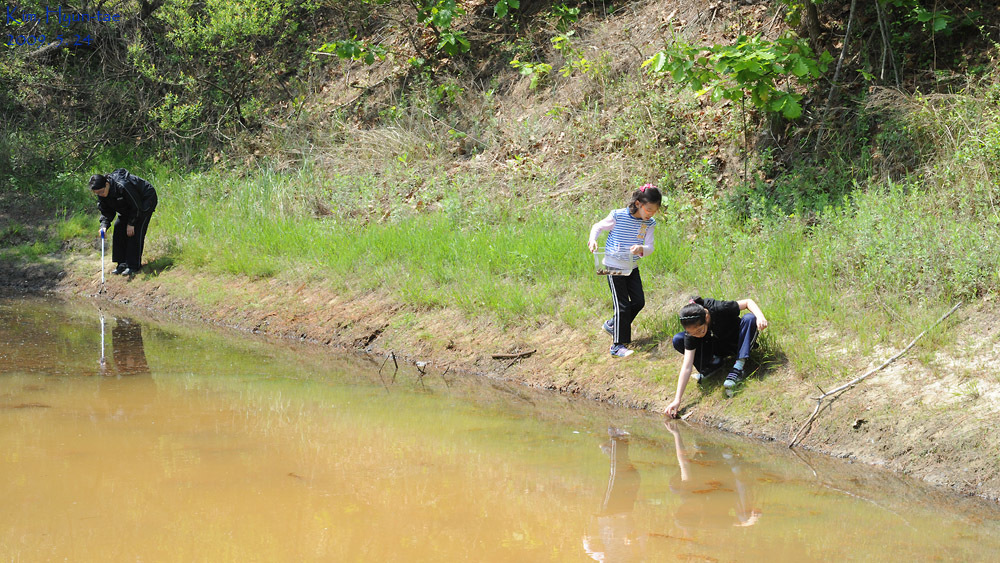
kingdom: Animalia
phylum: Mollusca
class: Gastropoda
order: Architaenioglossa
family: Viviparidae
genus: Cipangopaludina
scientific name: Cipangopaludina chinensis
